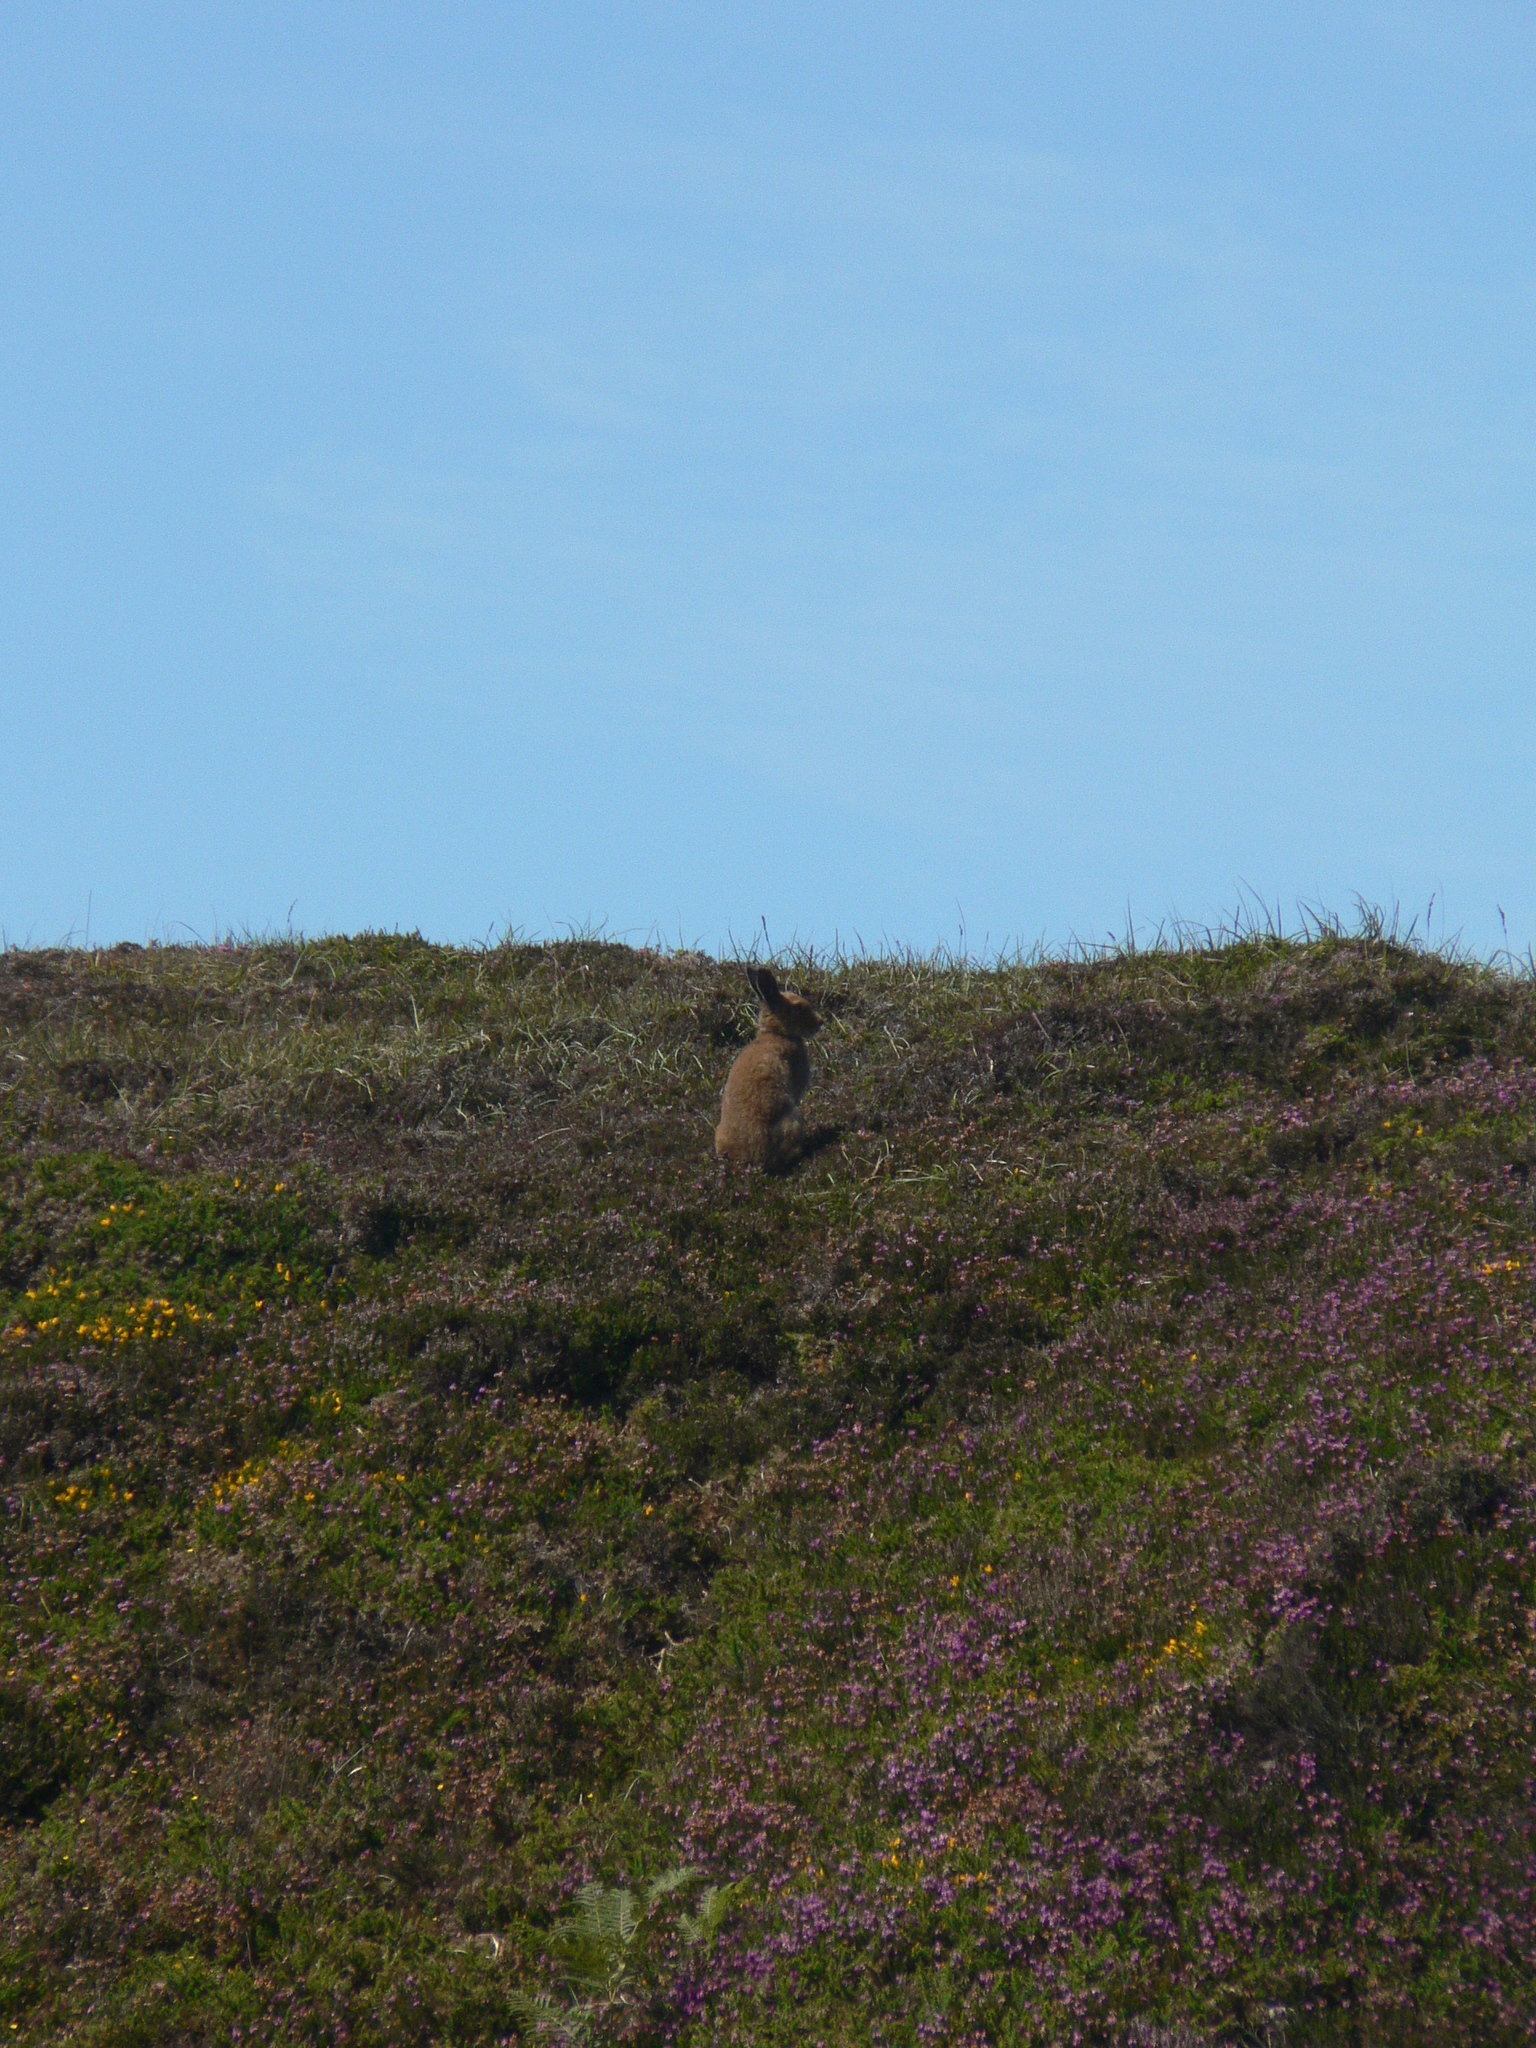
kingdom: Animalia
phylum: Chordata
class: Mammalia
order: Lagomorpha
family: Leporidae
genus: Lepus
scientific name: Lepus timidus
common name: Mountain hare
